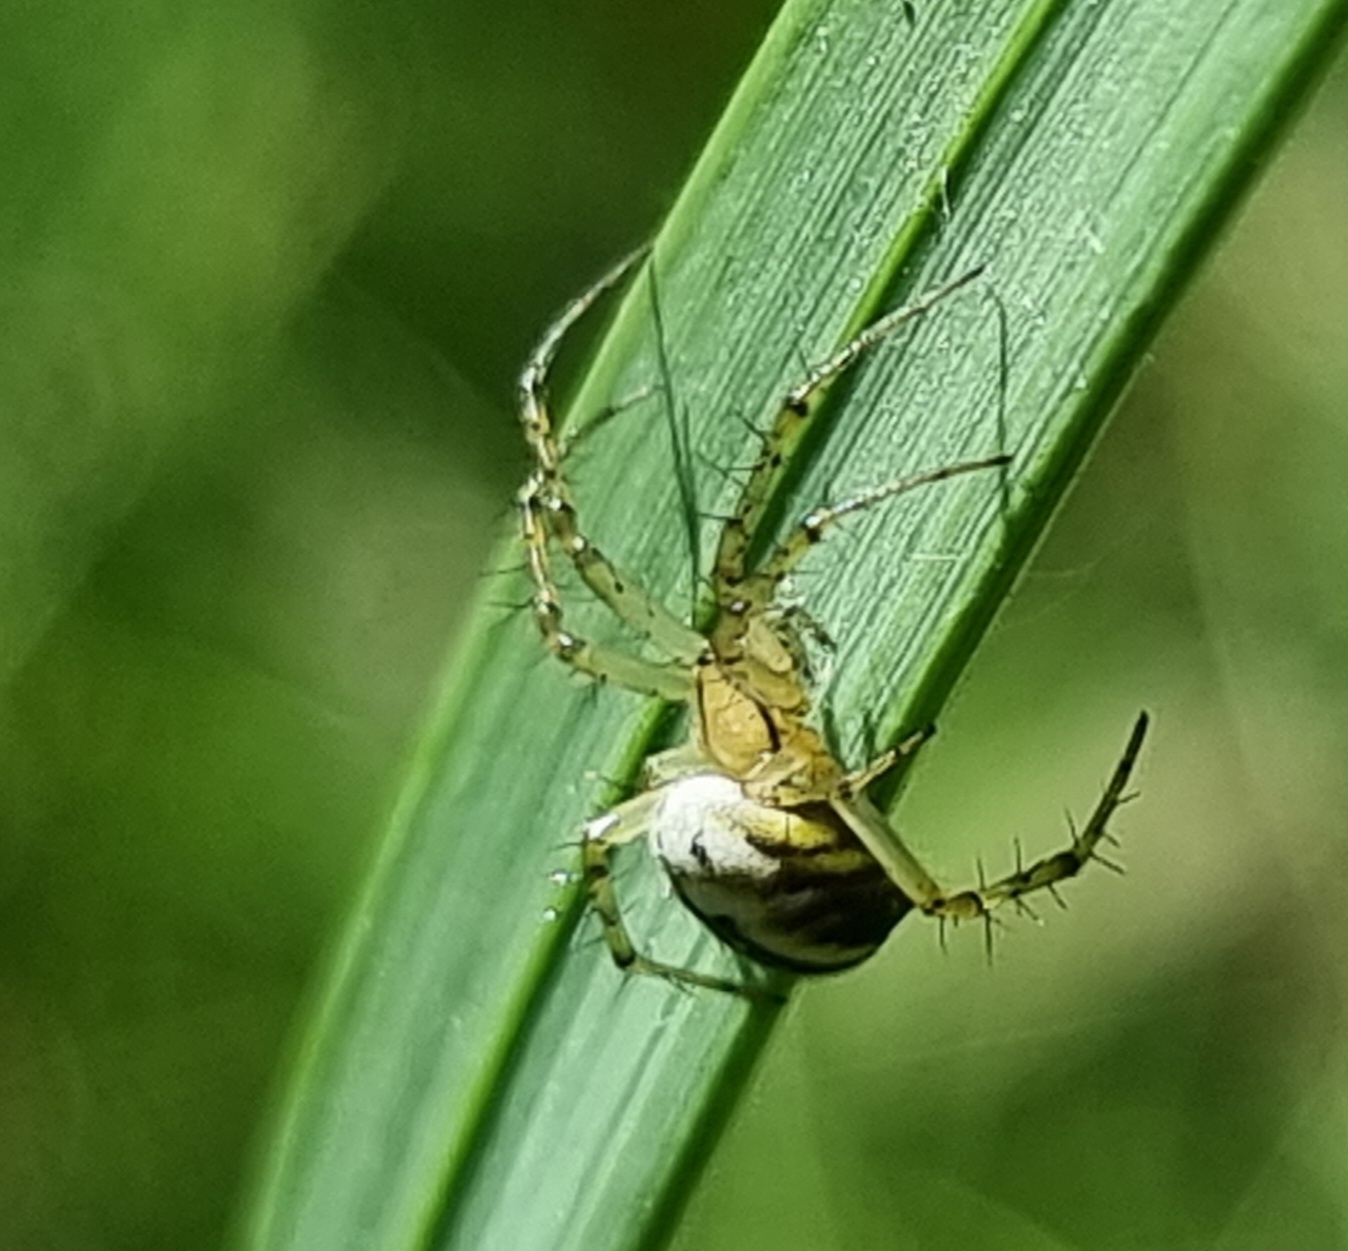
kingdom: Animalia
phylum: Arthropoda
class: Arachnida
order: Araneae
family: Araneidae
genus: Mangora
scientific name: Mangora acalypha
